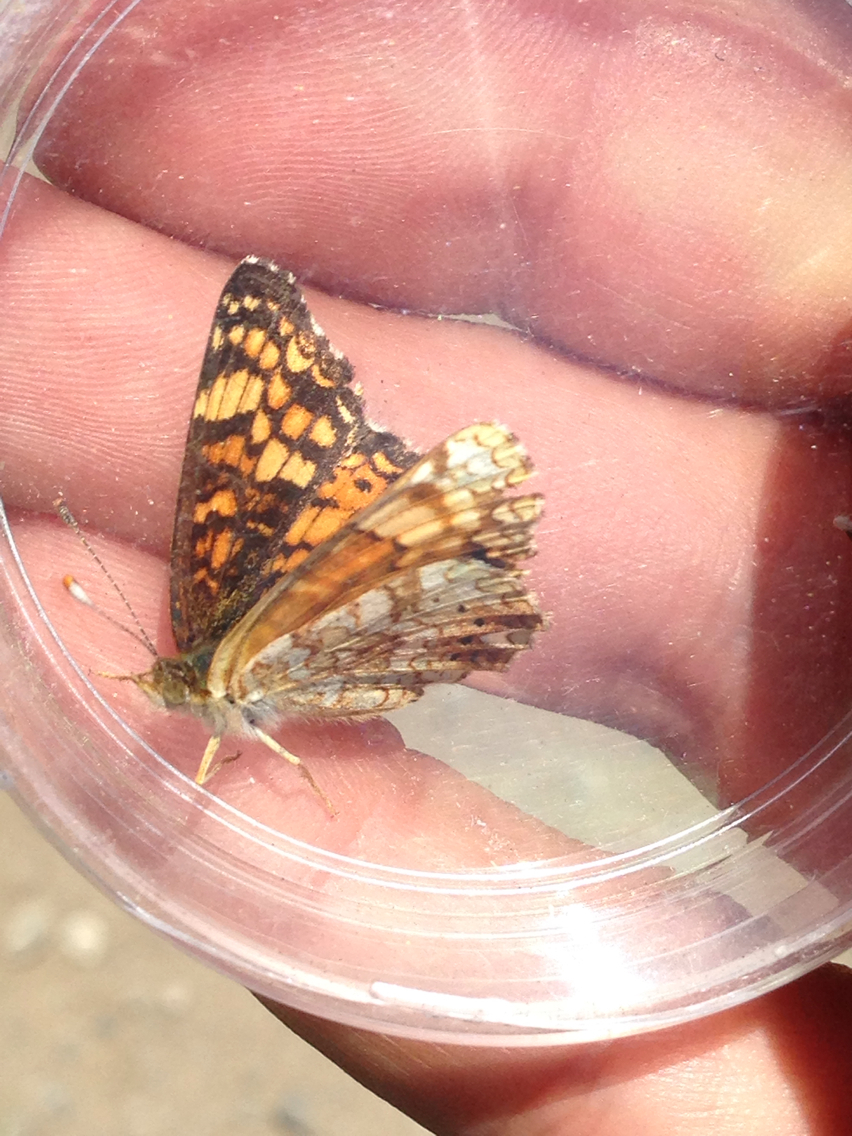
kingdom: Animalia
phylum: Arthropoda
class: Insecta
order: Lepidoptera
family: Nymphalidae
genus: Phyciodes
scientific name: Phyciodes tharos
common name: Pearl crescent
